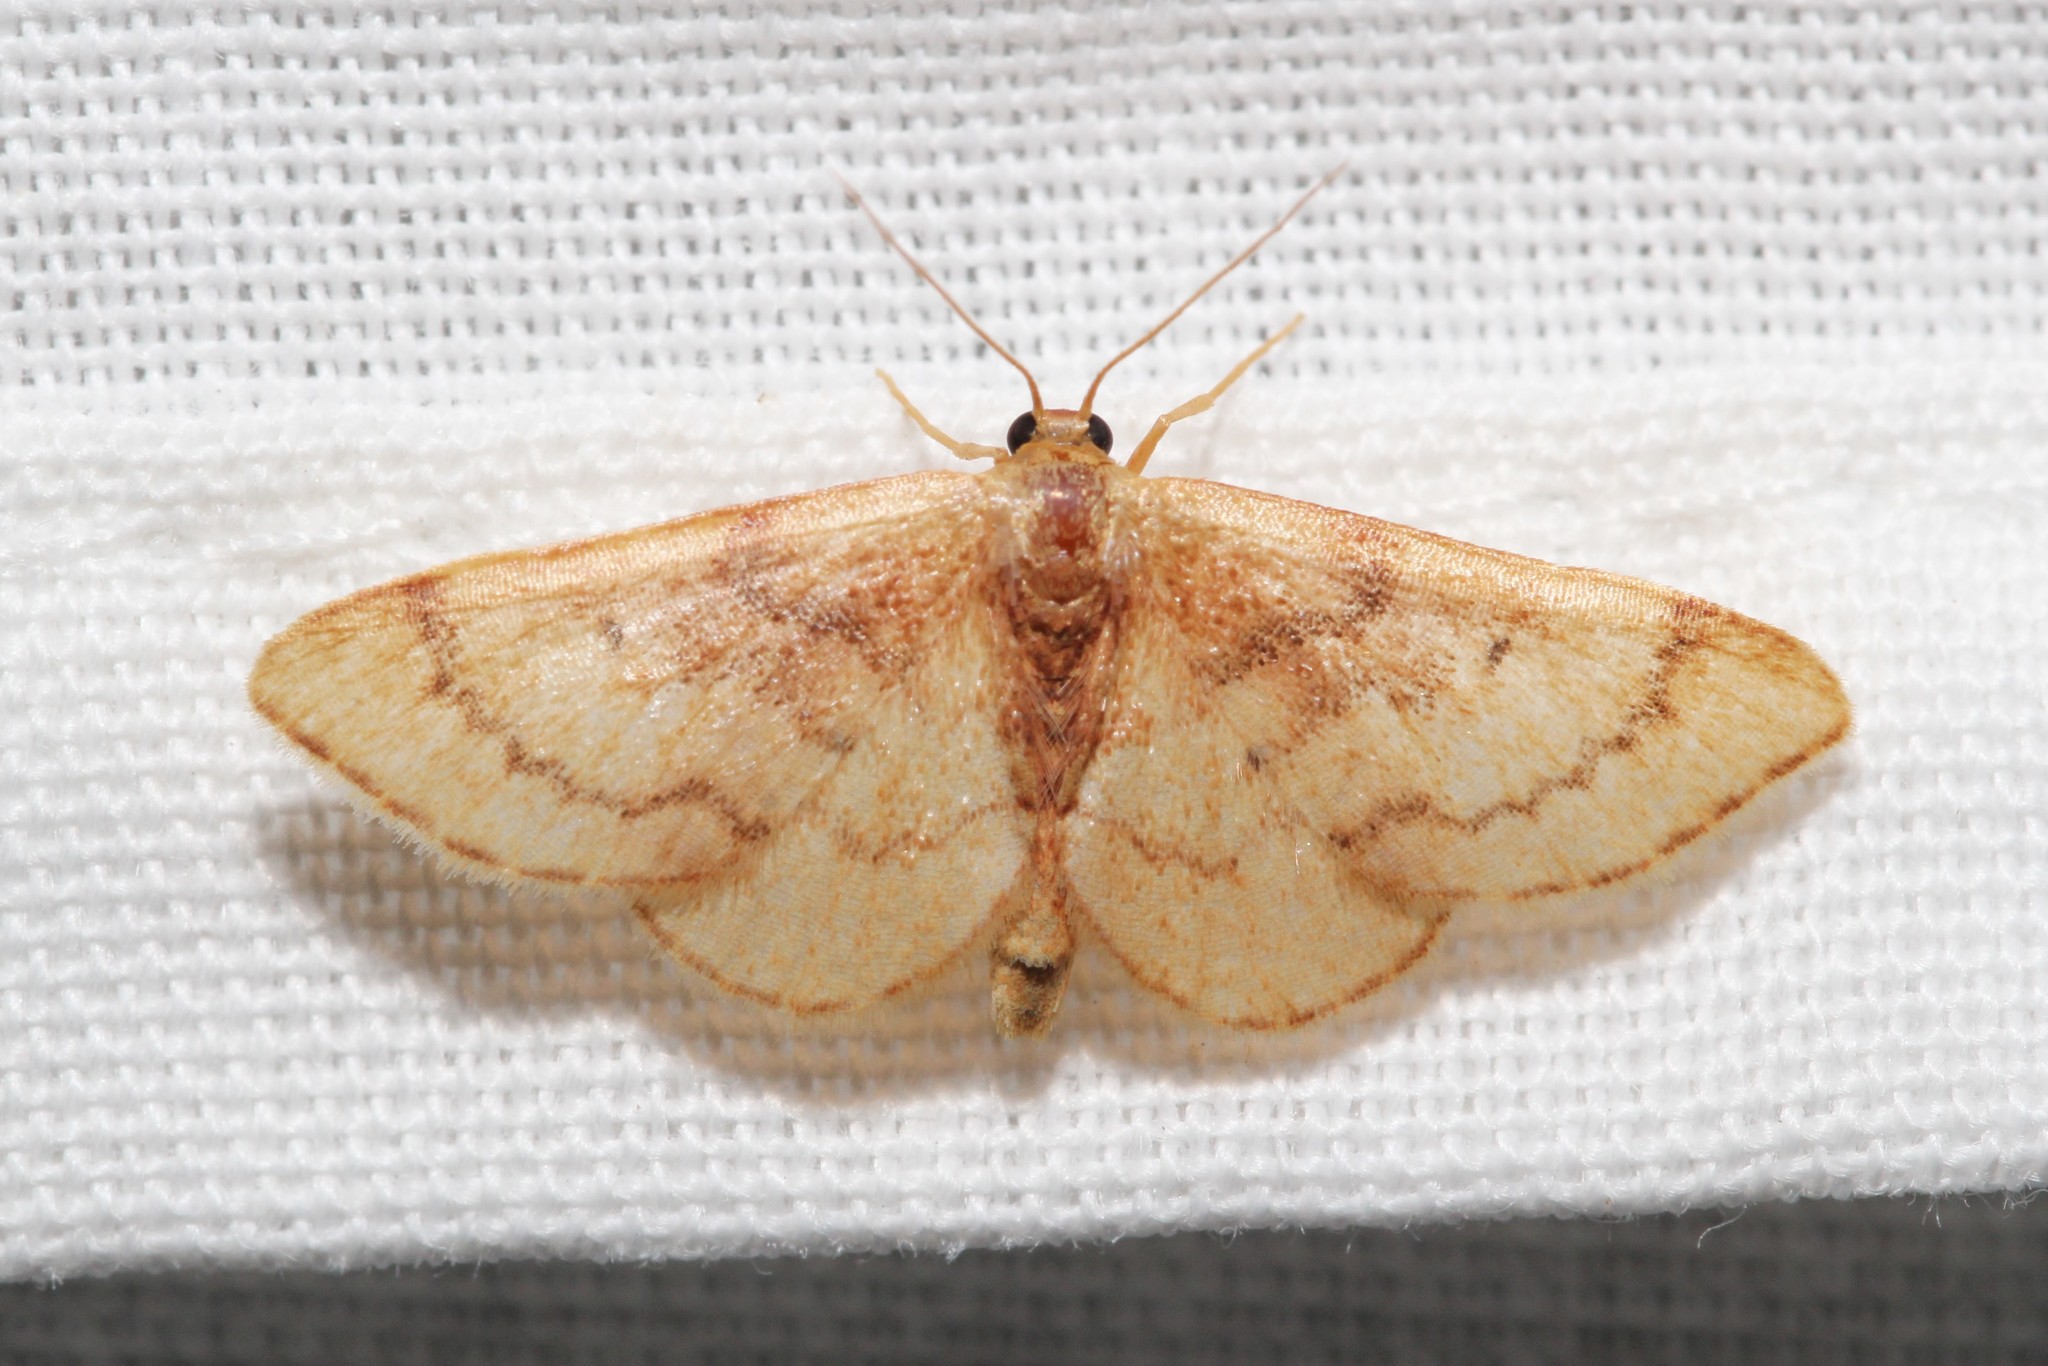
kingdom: Animalia
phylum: Arthropoda
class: Insecta
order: Lepidoptera
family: Geometridae
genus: Idaea
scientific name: Idaea demissaria
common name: Red-bordered wave
